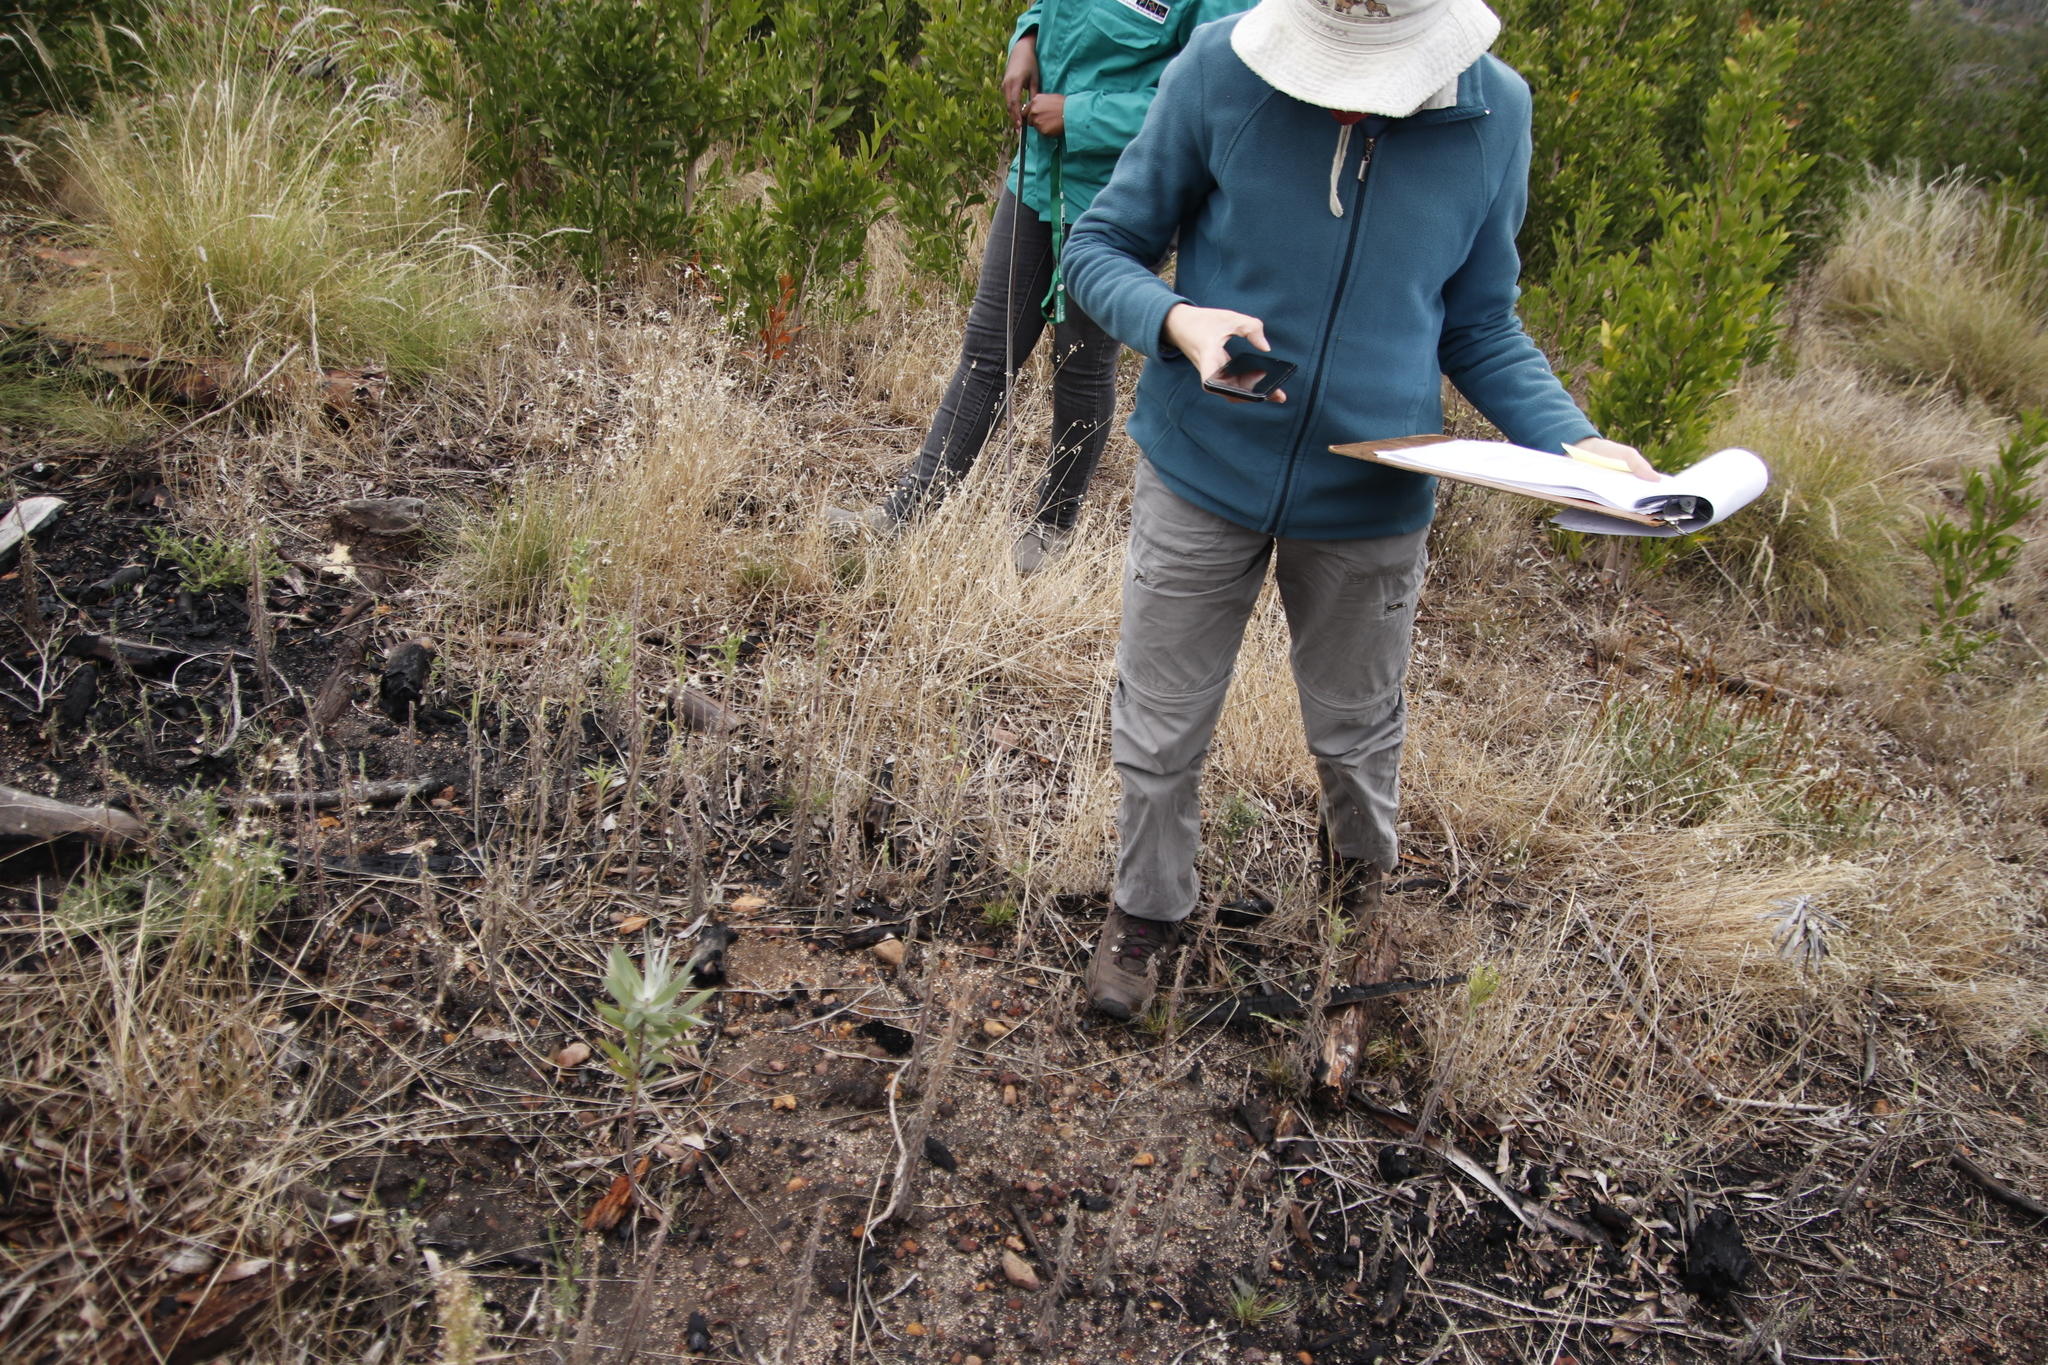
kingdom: Plantae
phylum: Tracheophyta
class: Magnoliopsida
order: Proteales
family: Proteaceae
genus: Leucadendron
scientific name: Leucadendron argenteum
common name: Cape silver tree
